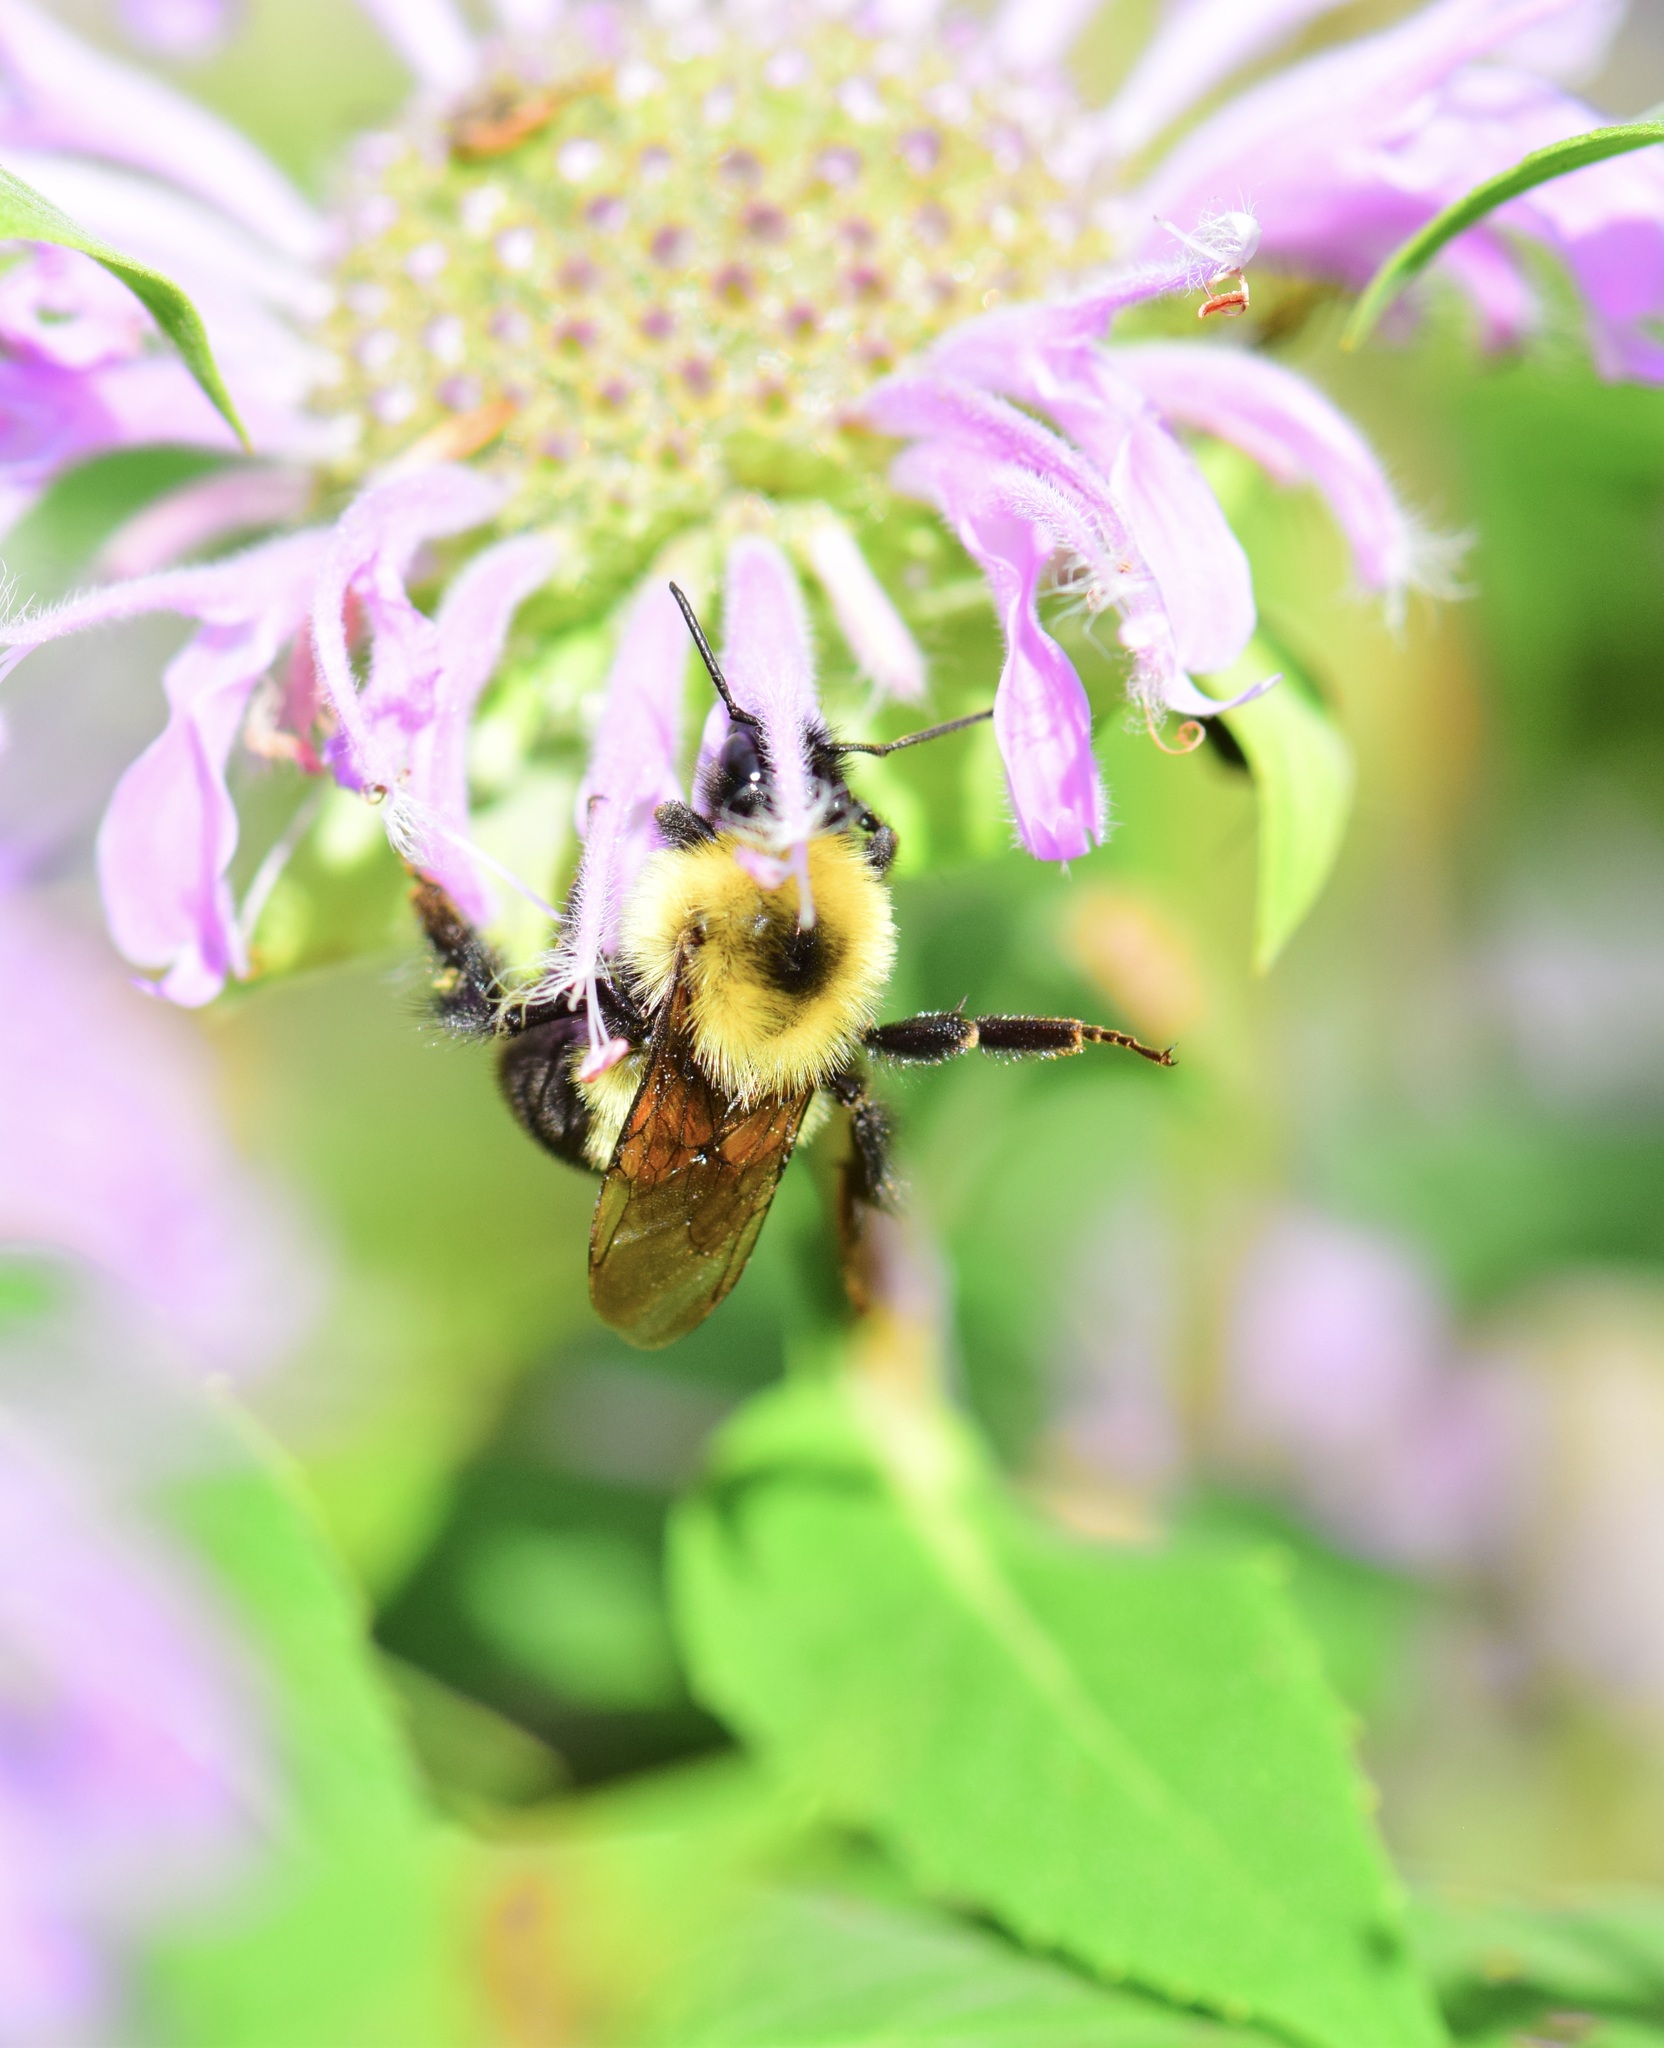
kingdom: Animalia
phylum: Arthropoda
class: Insecta
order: Hymenoptera
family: Apidae
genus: Bombus
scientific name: Bombus bimaculatus
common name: Two-spotted bumble bee
